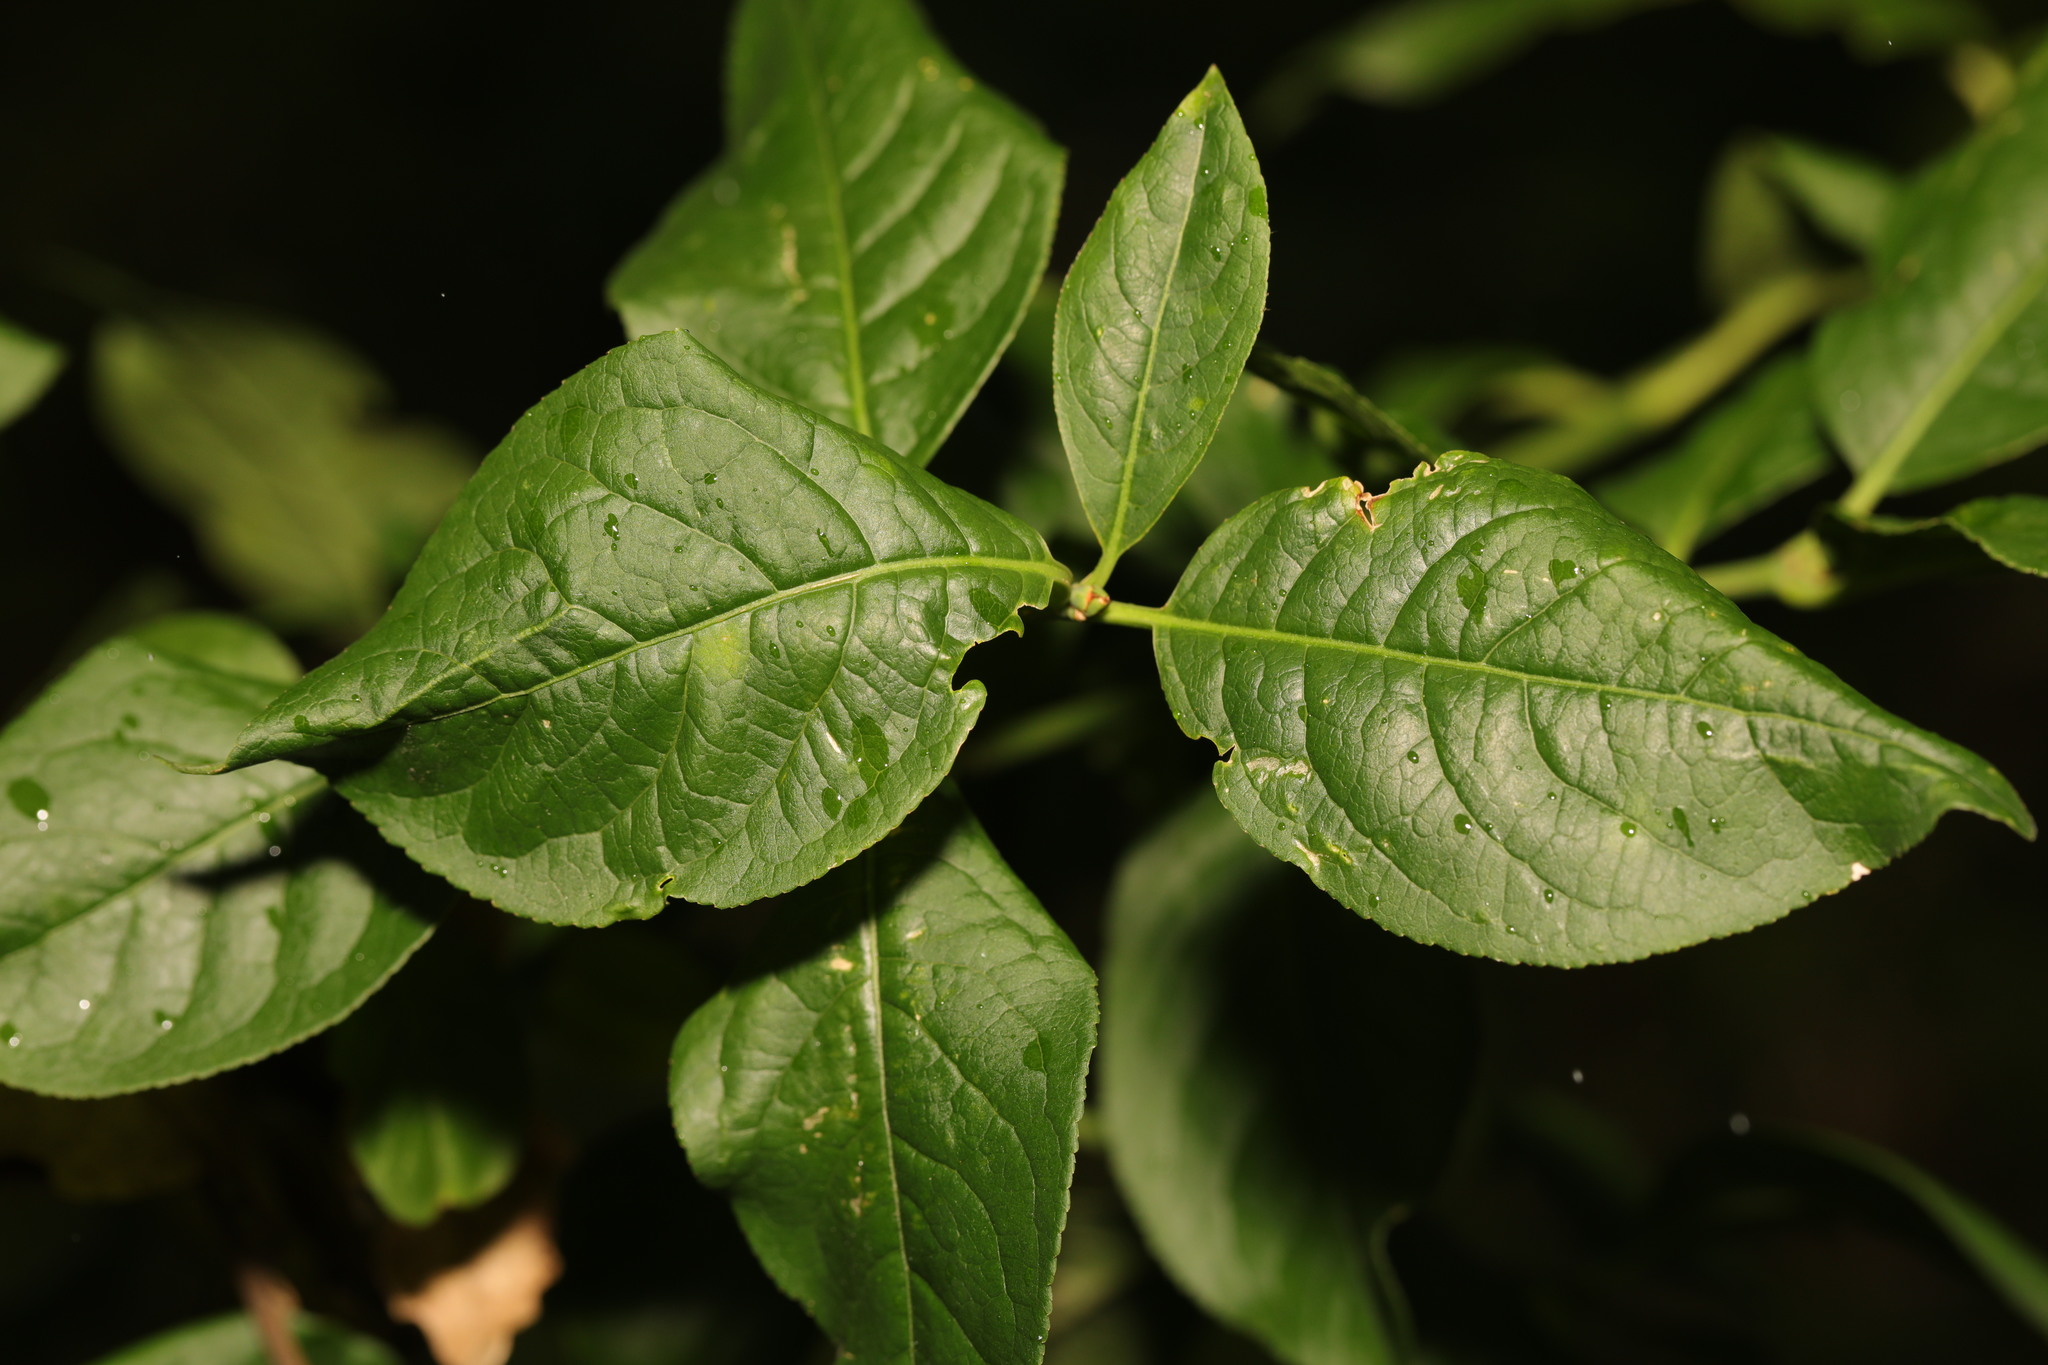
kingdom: Plantae
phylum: Tracheophyta
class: Magnoliopsida
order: Celastrales
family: Celastraceae
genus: Euonymus
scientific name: Euonymus europaeus
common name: Spindle
